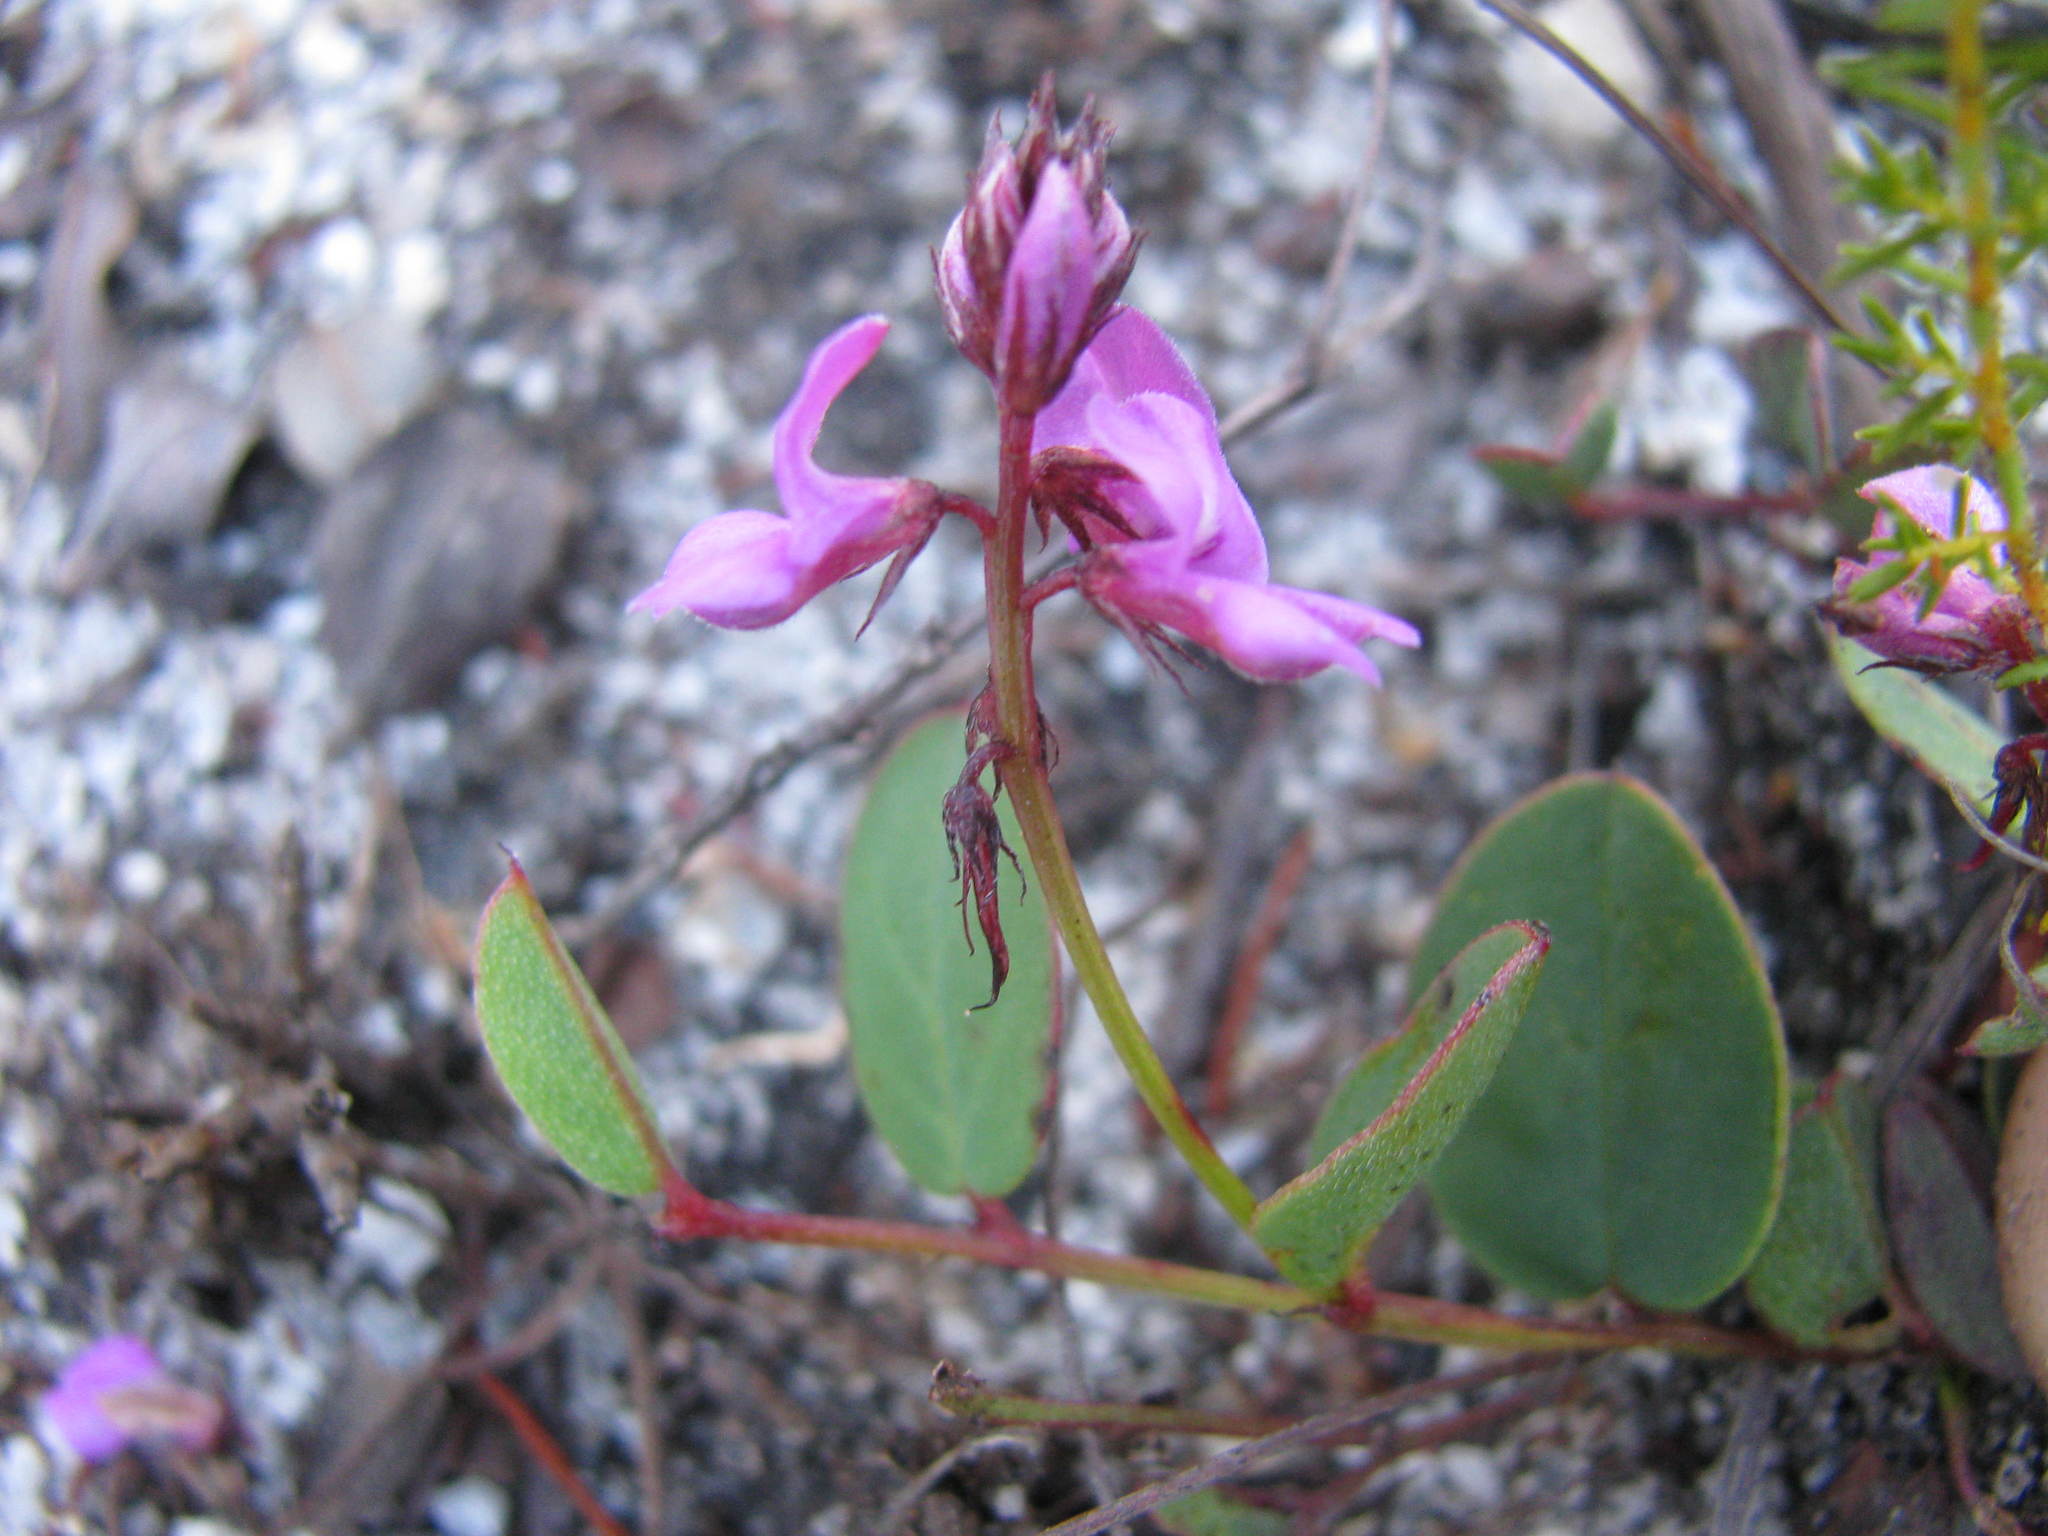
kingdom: Plantae
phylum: Tracheophyta
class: Magnoliopsida
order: Fabales
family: Fabaceae
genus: Indigofera
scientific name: Indigofera ovata
